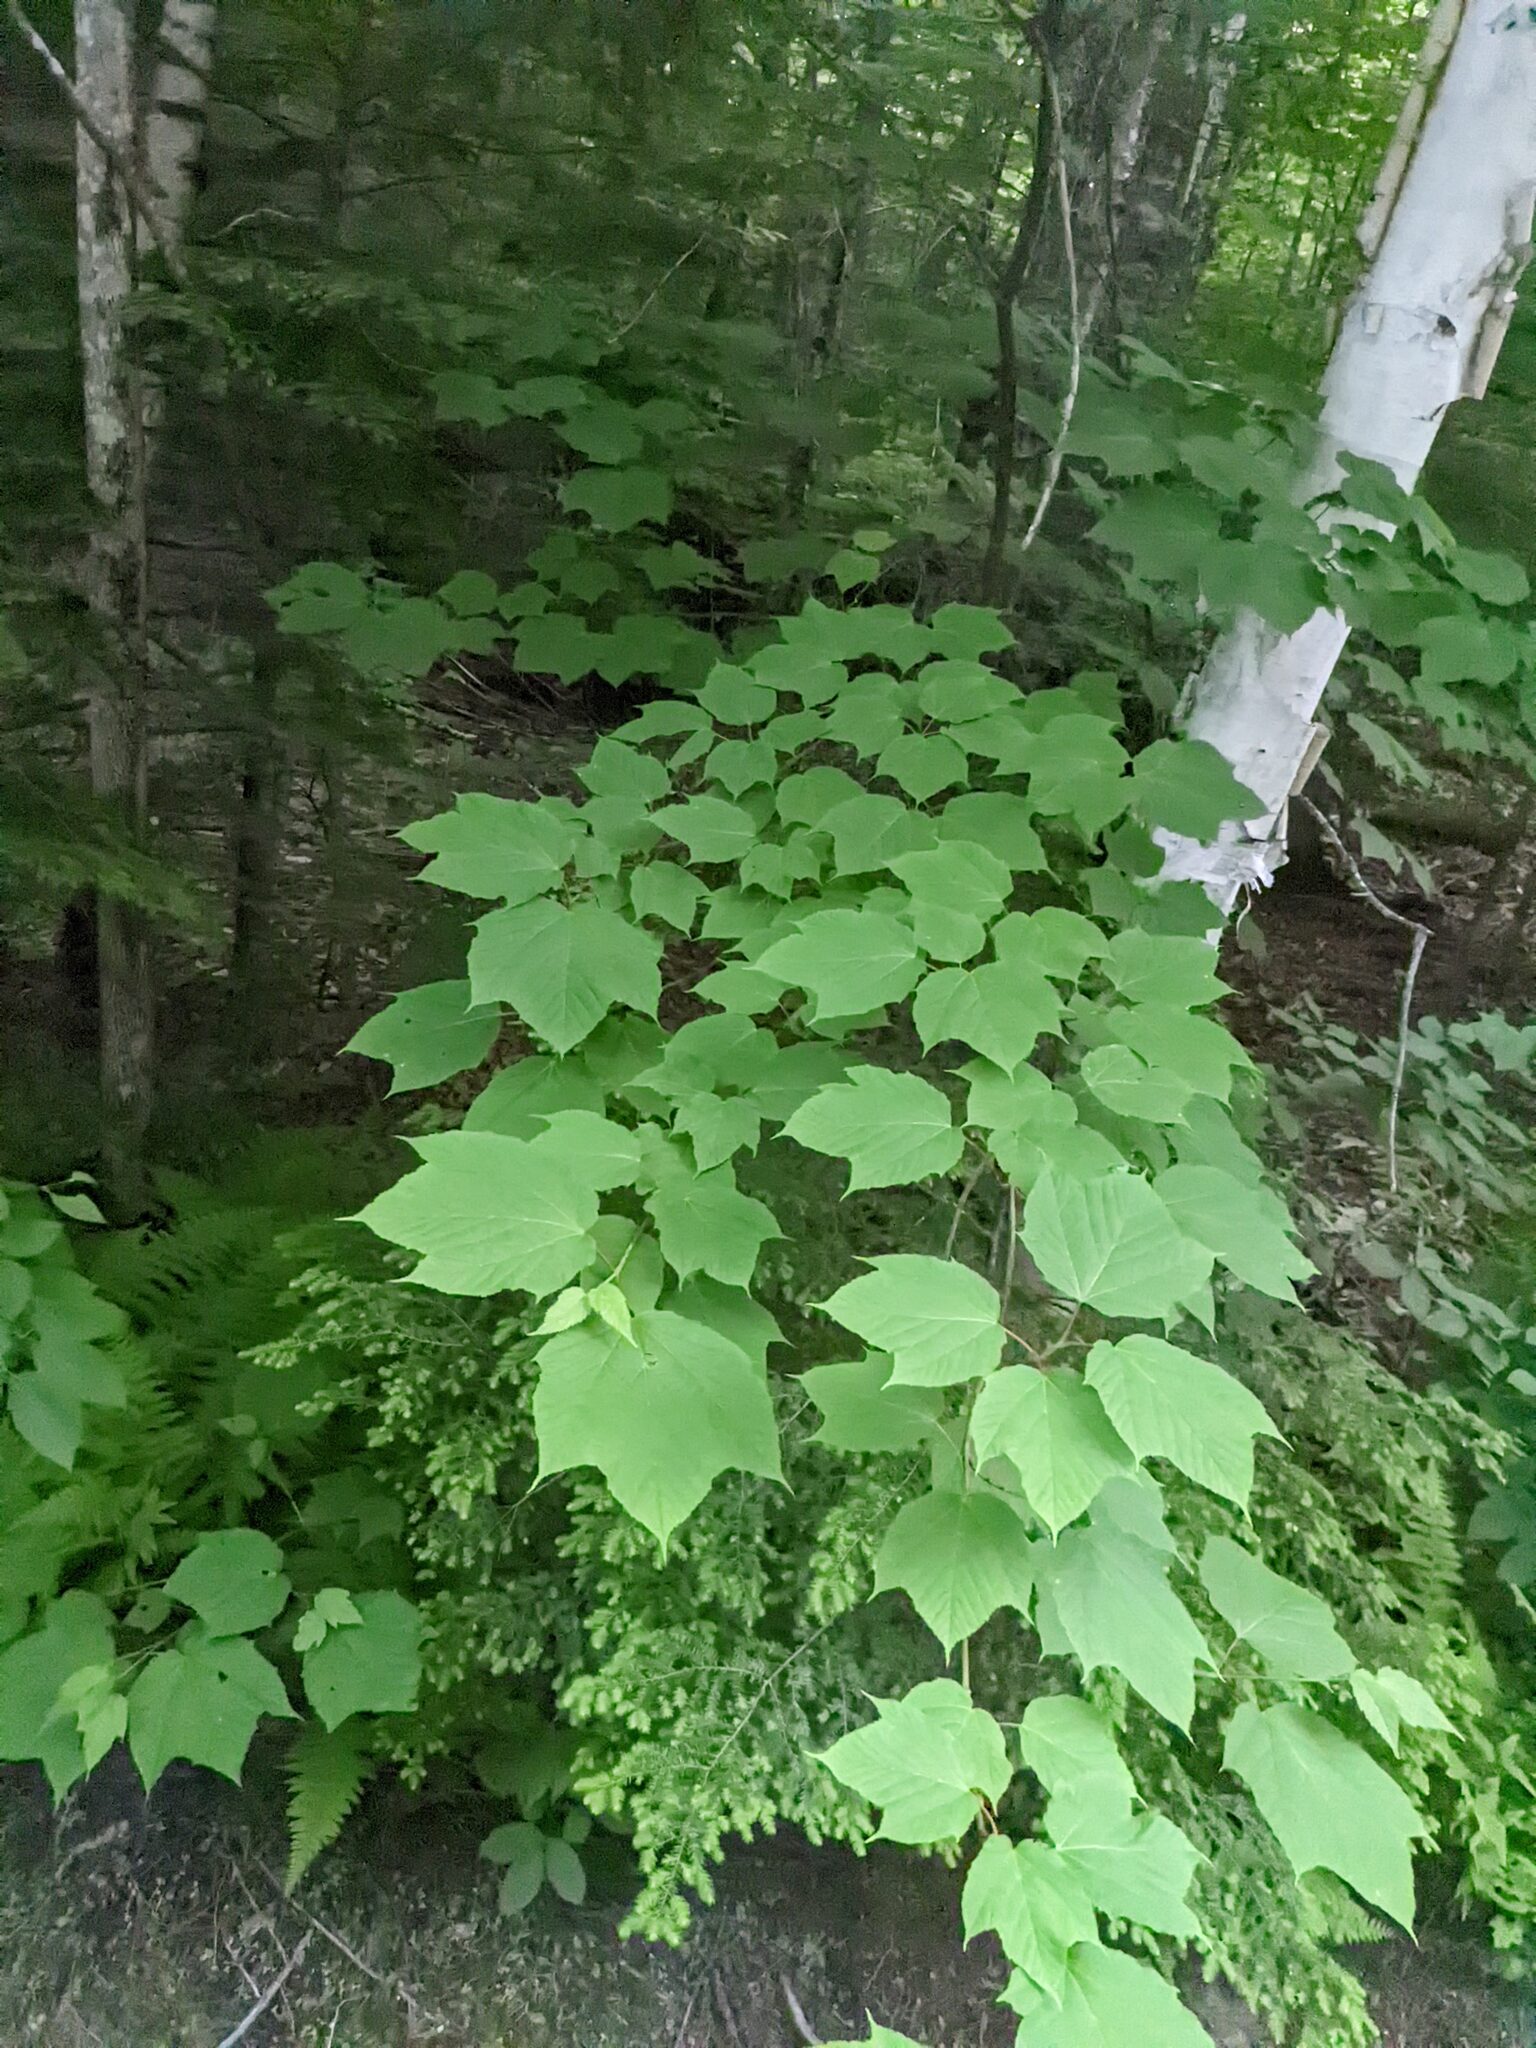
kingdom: Plantae
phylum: Tracheophyta
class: Magnoliopsida
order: Sapindales
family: Sapindaceae
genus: Acer
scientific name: Acer pensylvanicum
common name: Moosewood
